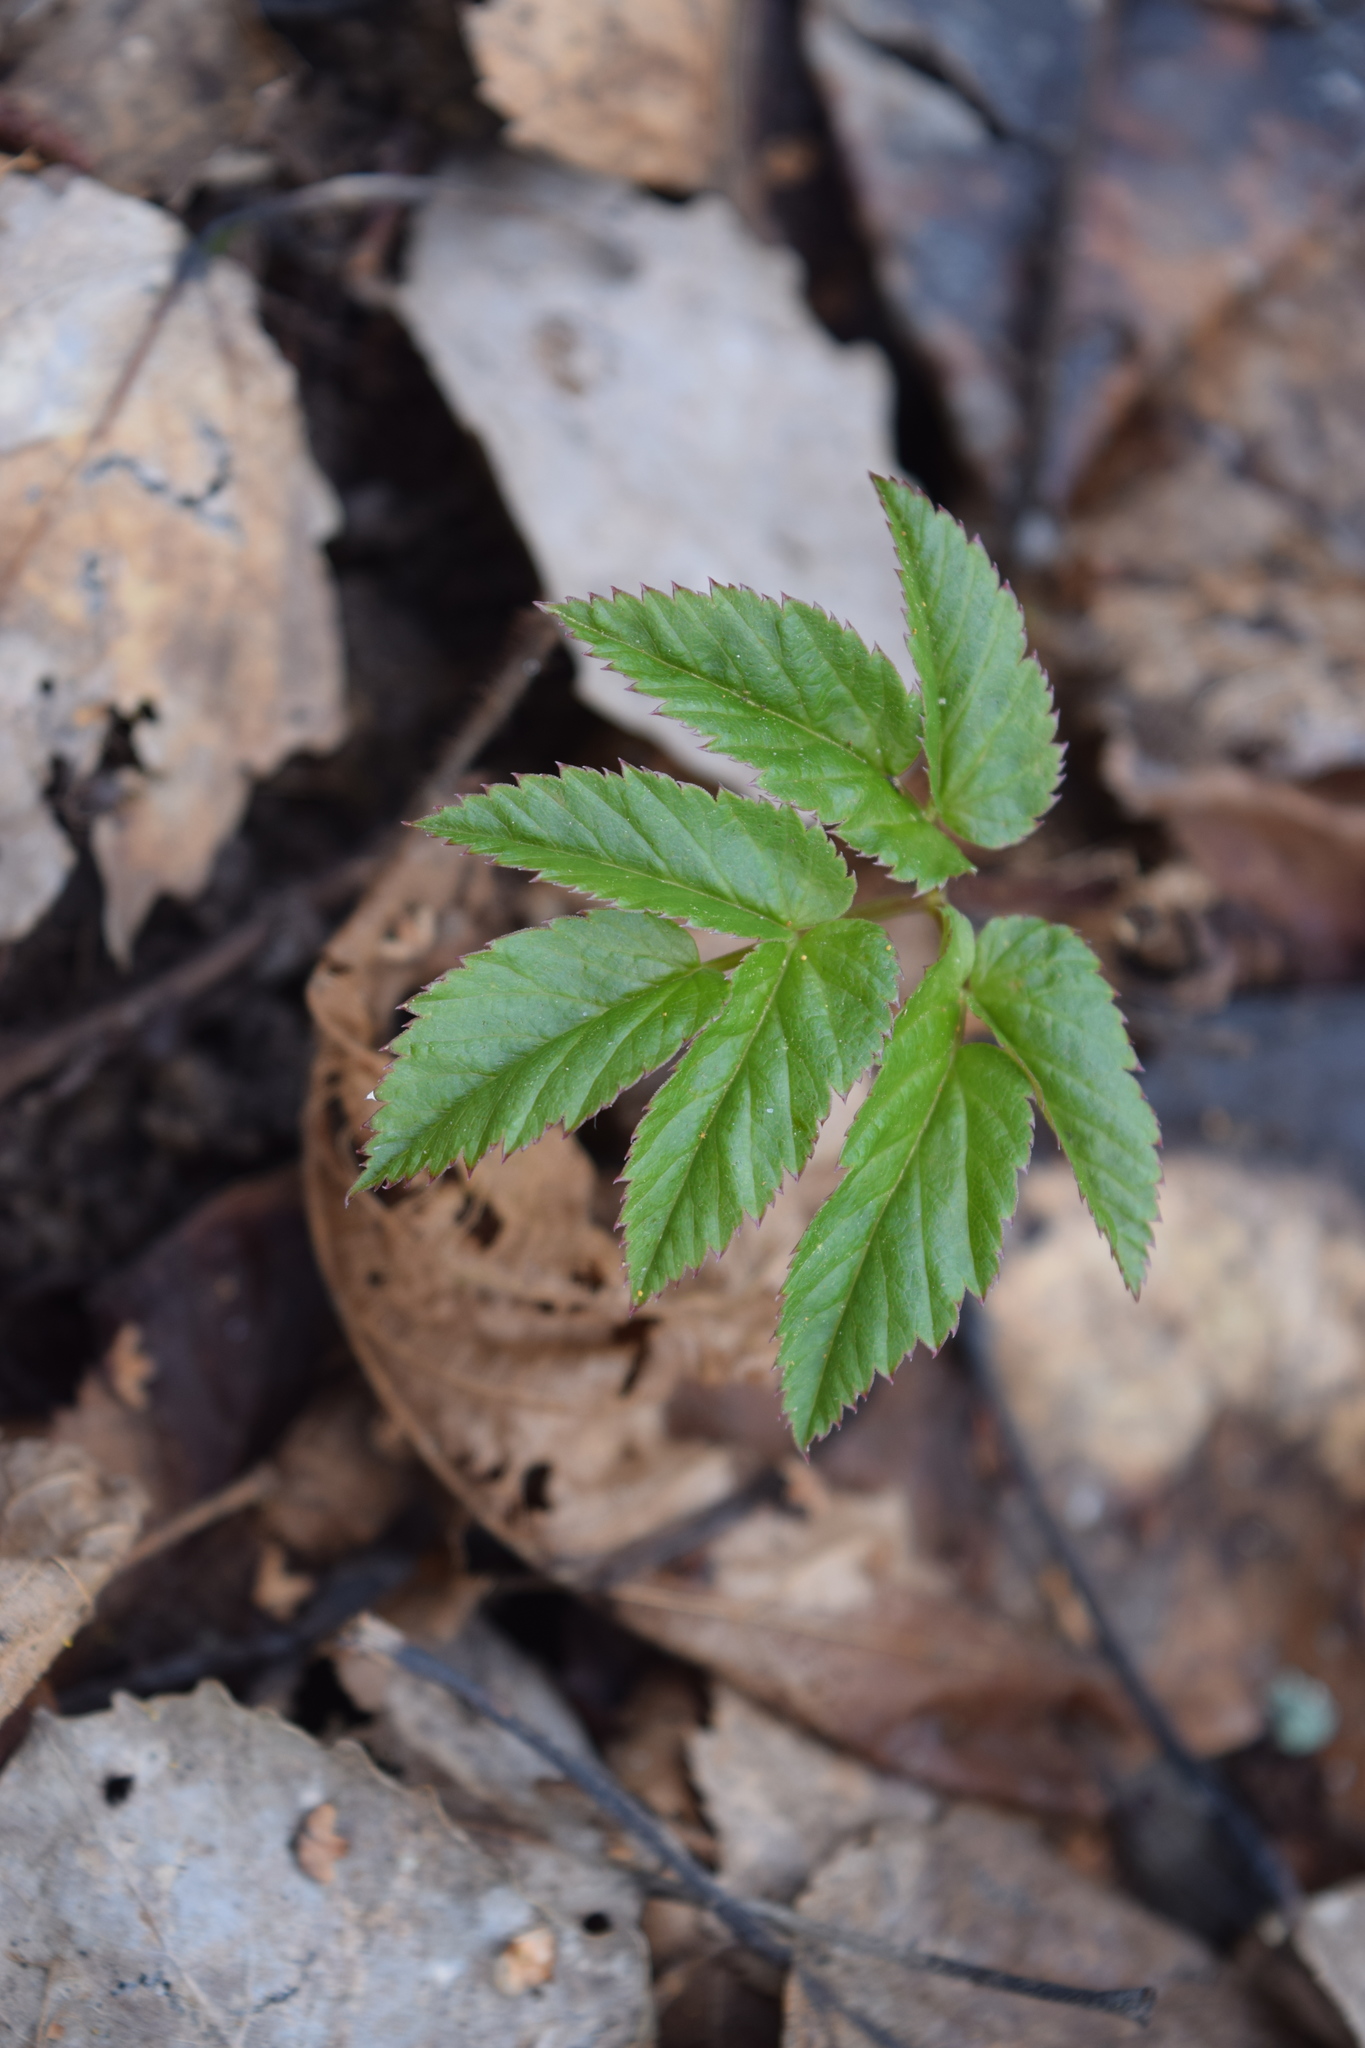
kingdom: Plantae
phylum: Tracheophyta
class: Magnoliopsida
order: Apiales
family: Apiaceae
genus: Aegopodium
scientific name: Aegopodium podagraria
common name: Ground-elder
